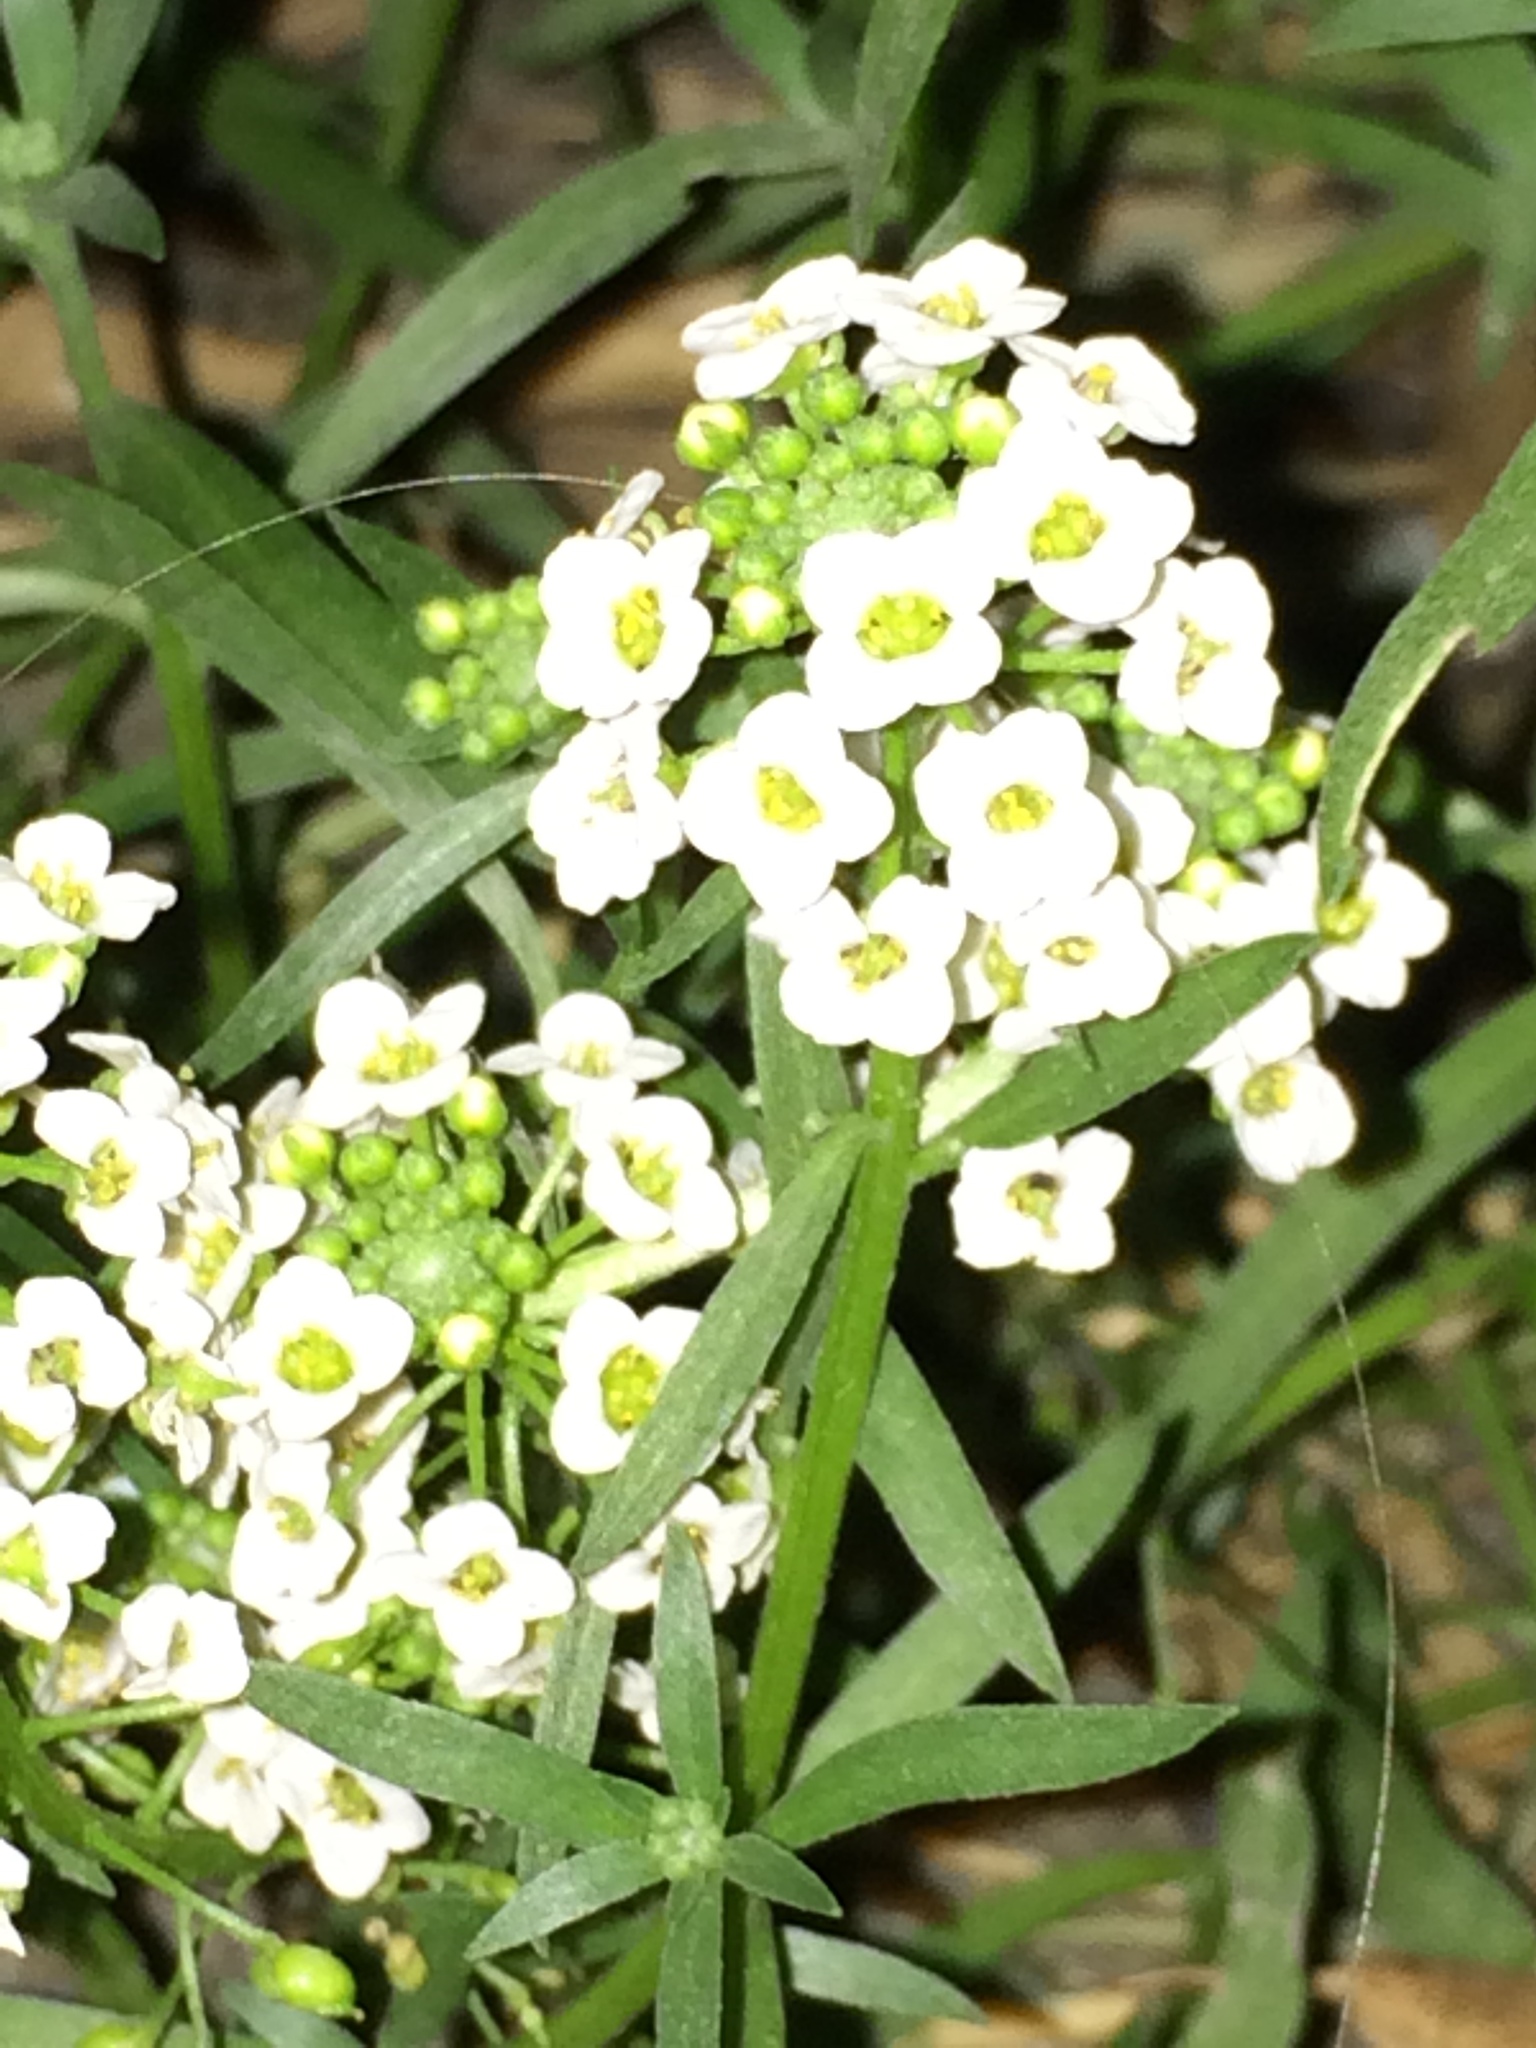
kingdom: Plantae
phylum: Tracheophyta
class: Magnoliopsida
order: Brassicales
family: Brassicaceae
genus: Lobularia
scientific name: Lobularia maritima
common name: Sweet alison
